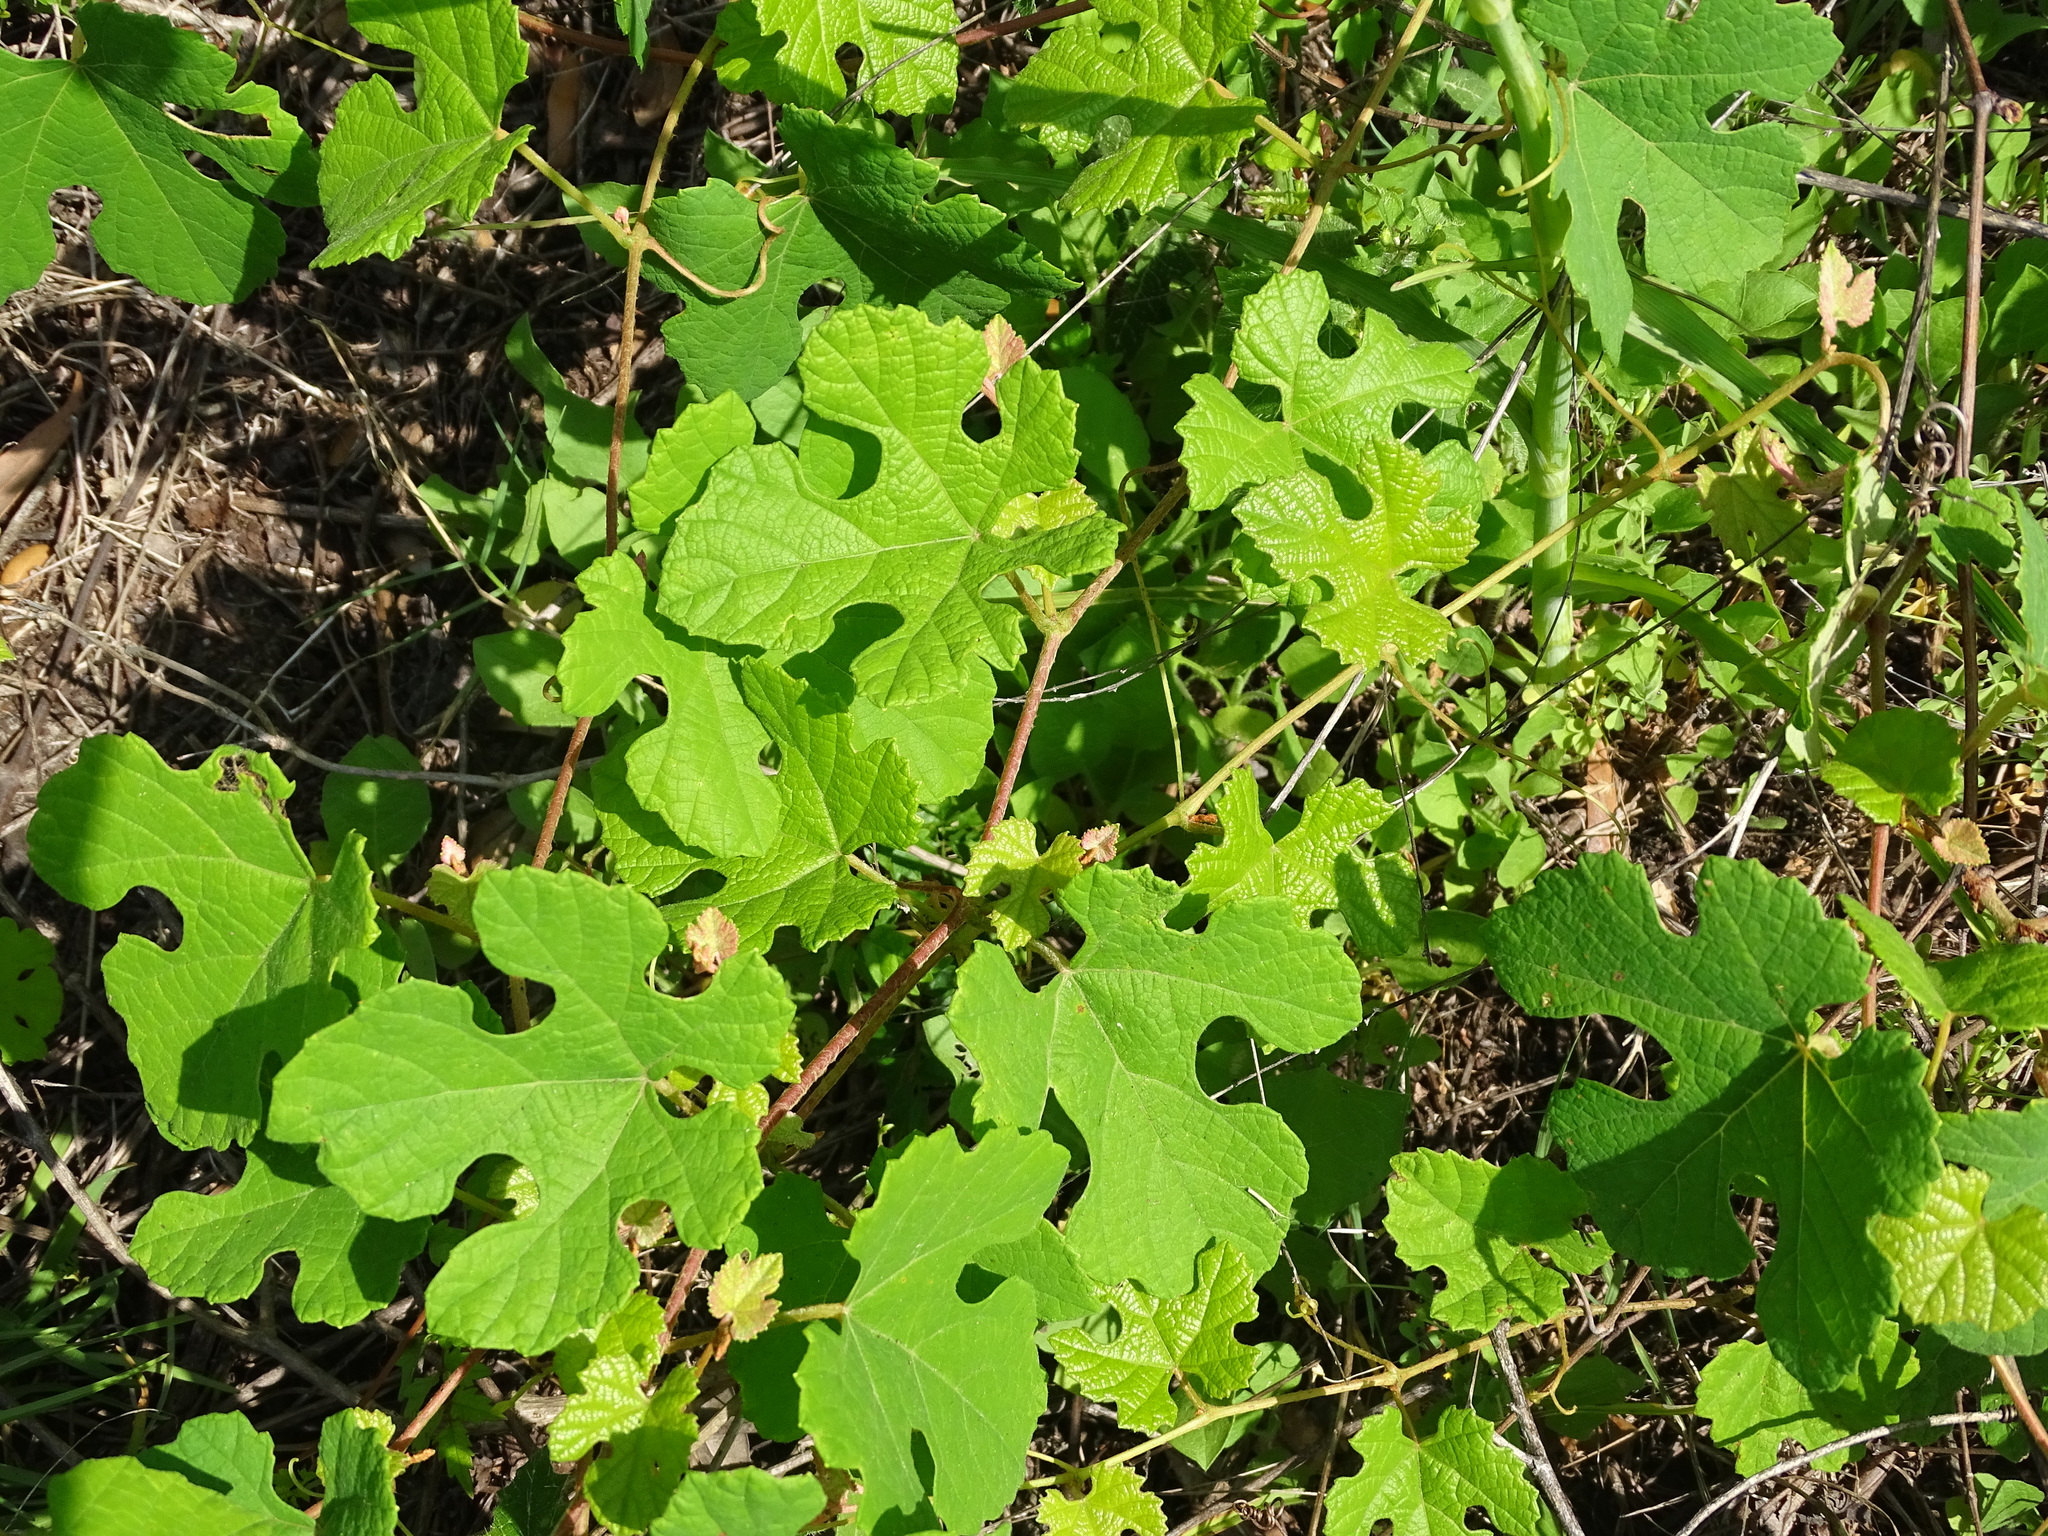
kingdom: Plantae
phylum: Tracheophyta
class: Magnoliopsida
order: Vitales
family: Vitaceae
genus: Vitis
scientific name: Vitis aestivalis
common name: Pigeon grape
